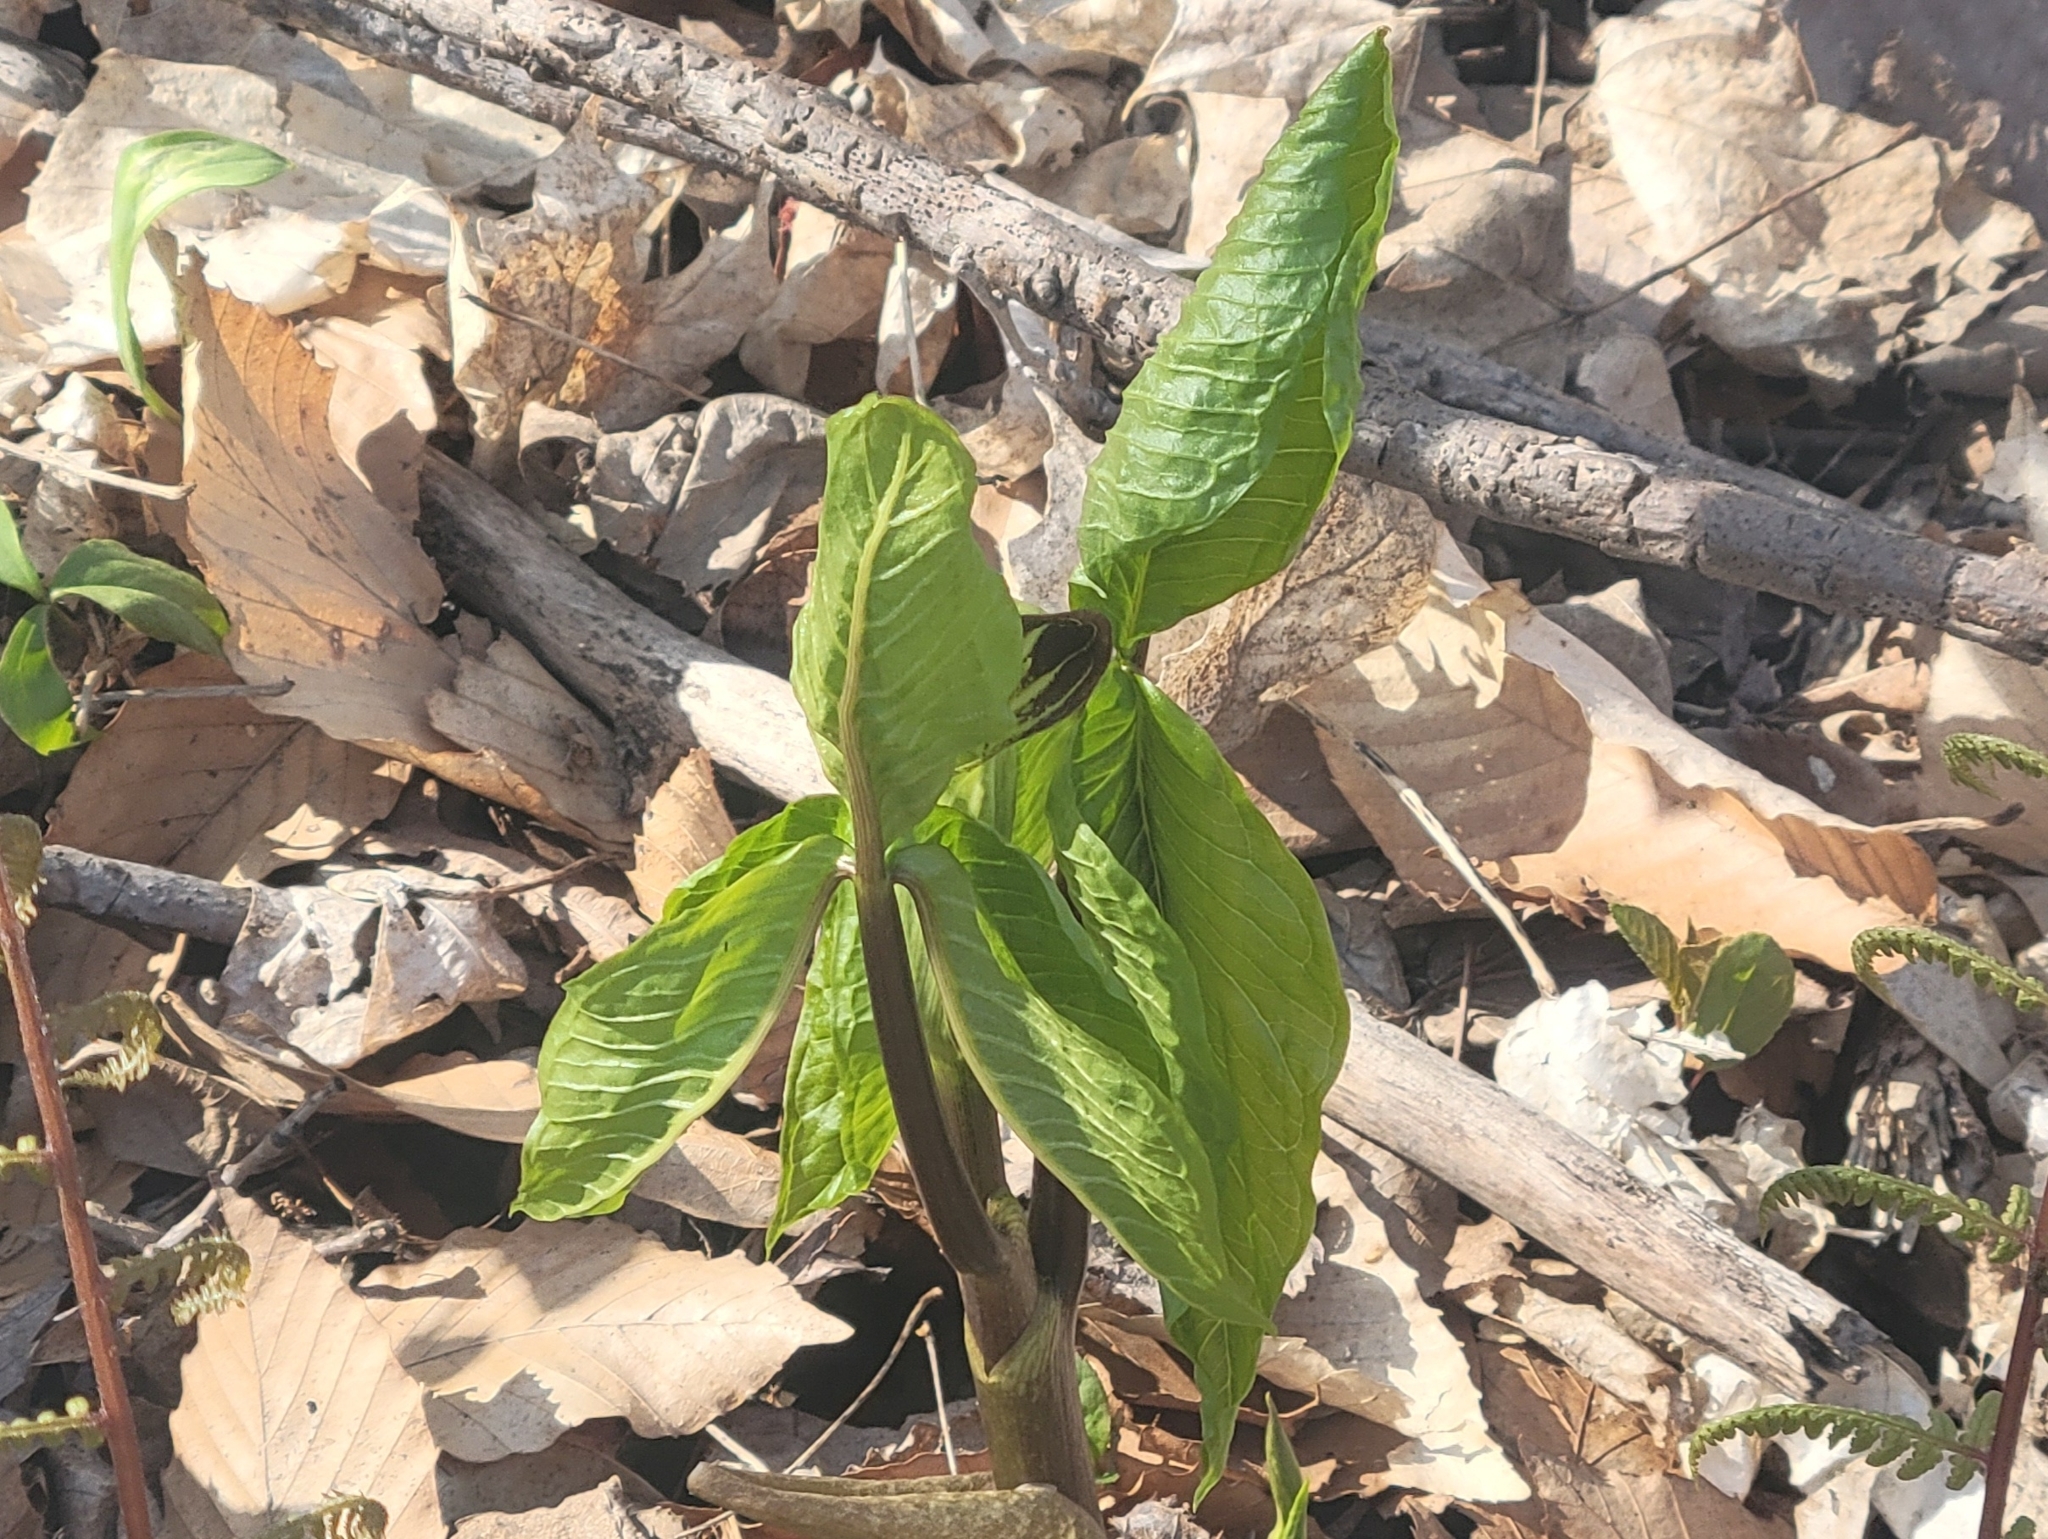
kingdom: Plantae
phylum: Tracheophyta
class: Liliopsida
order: Alismatales
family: Araceae
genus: Arisaema
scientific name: Arisaema triphyllum
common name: Jack-in-the-pulpit
